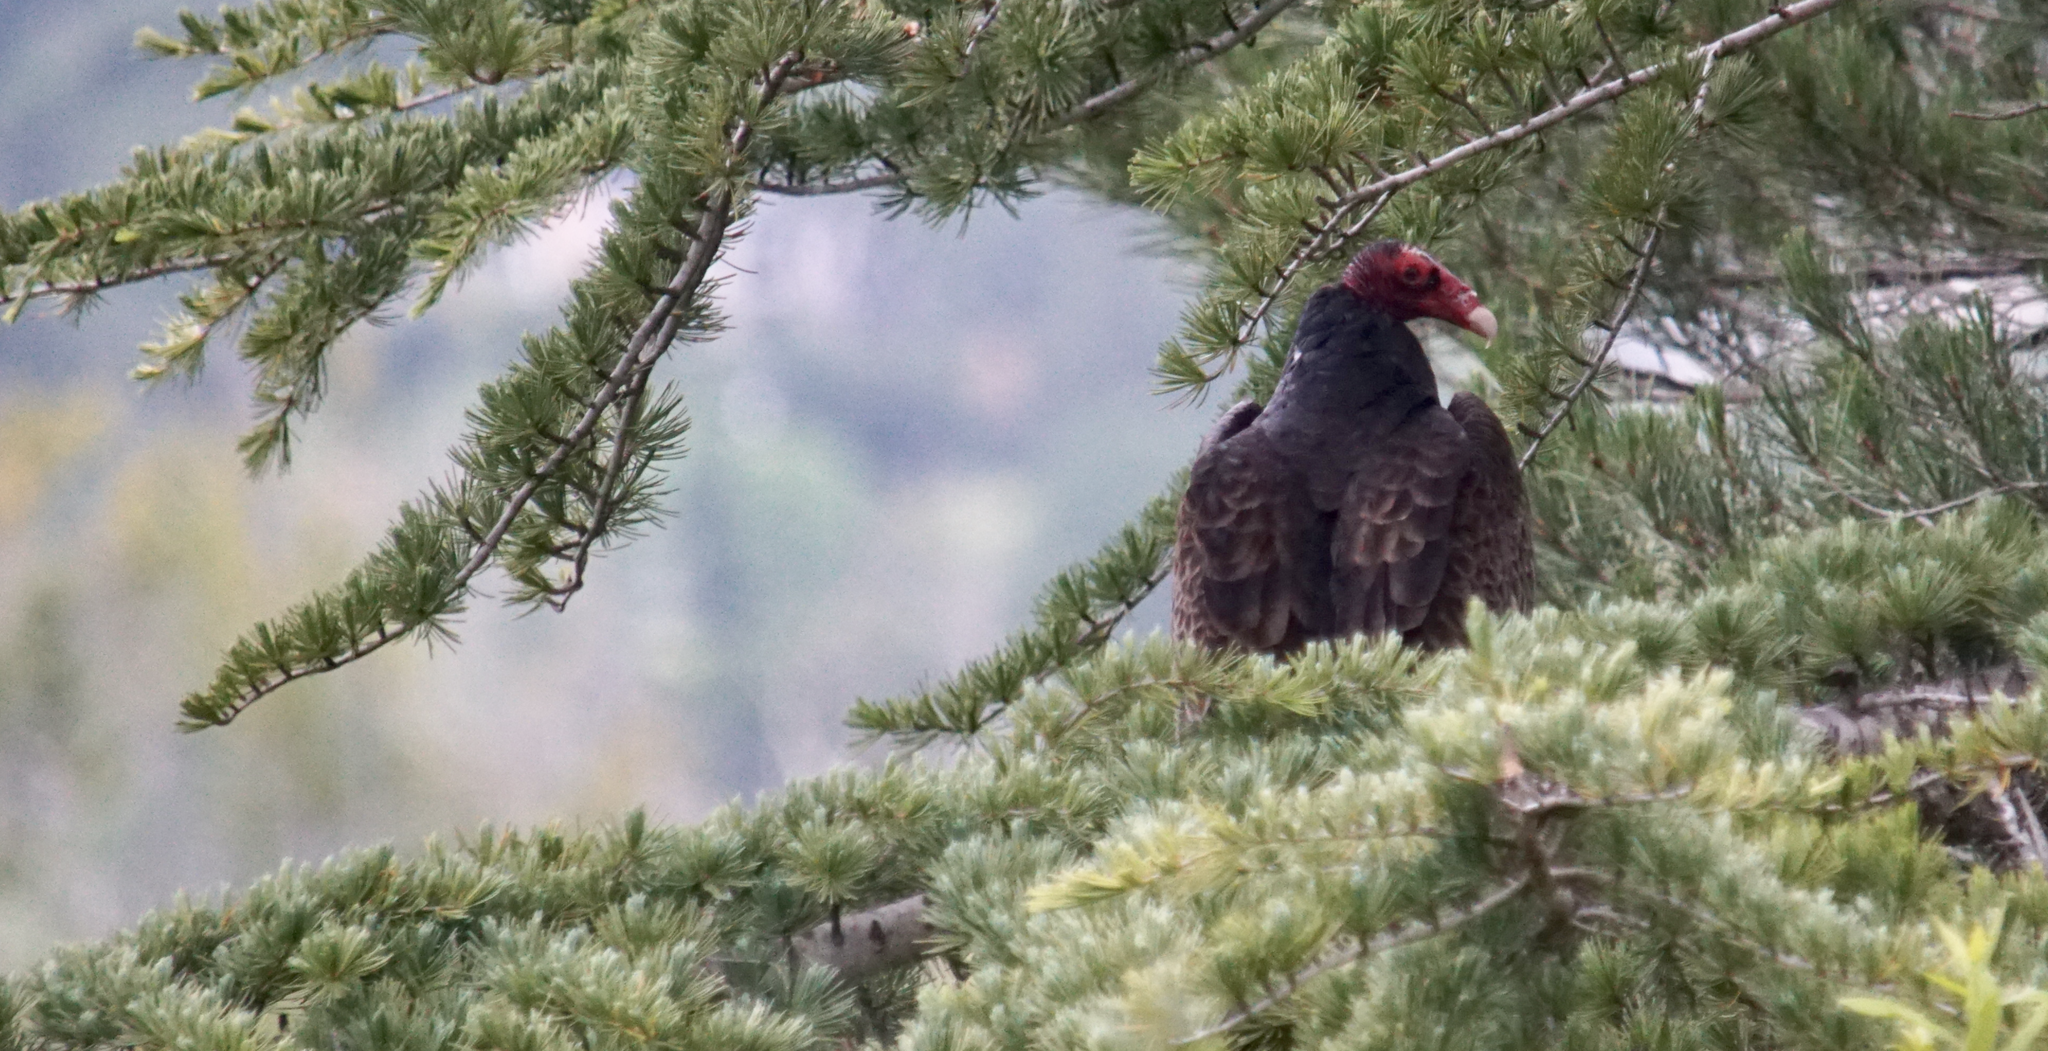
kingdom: Animalia
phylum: Chordata
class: Aves
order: Accipitriformes
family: Cathartidae
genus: Cathartes
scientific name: Cathartes aura
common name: Turkey vulture
